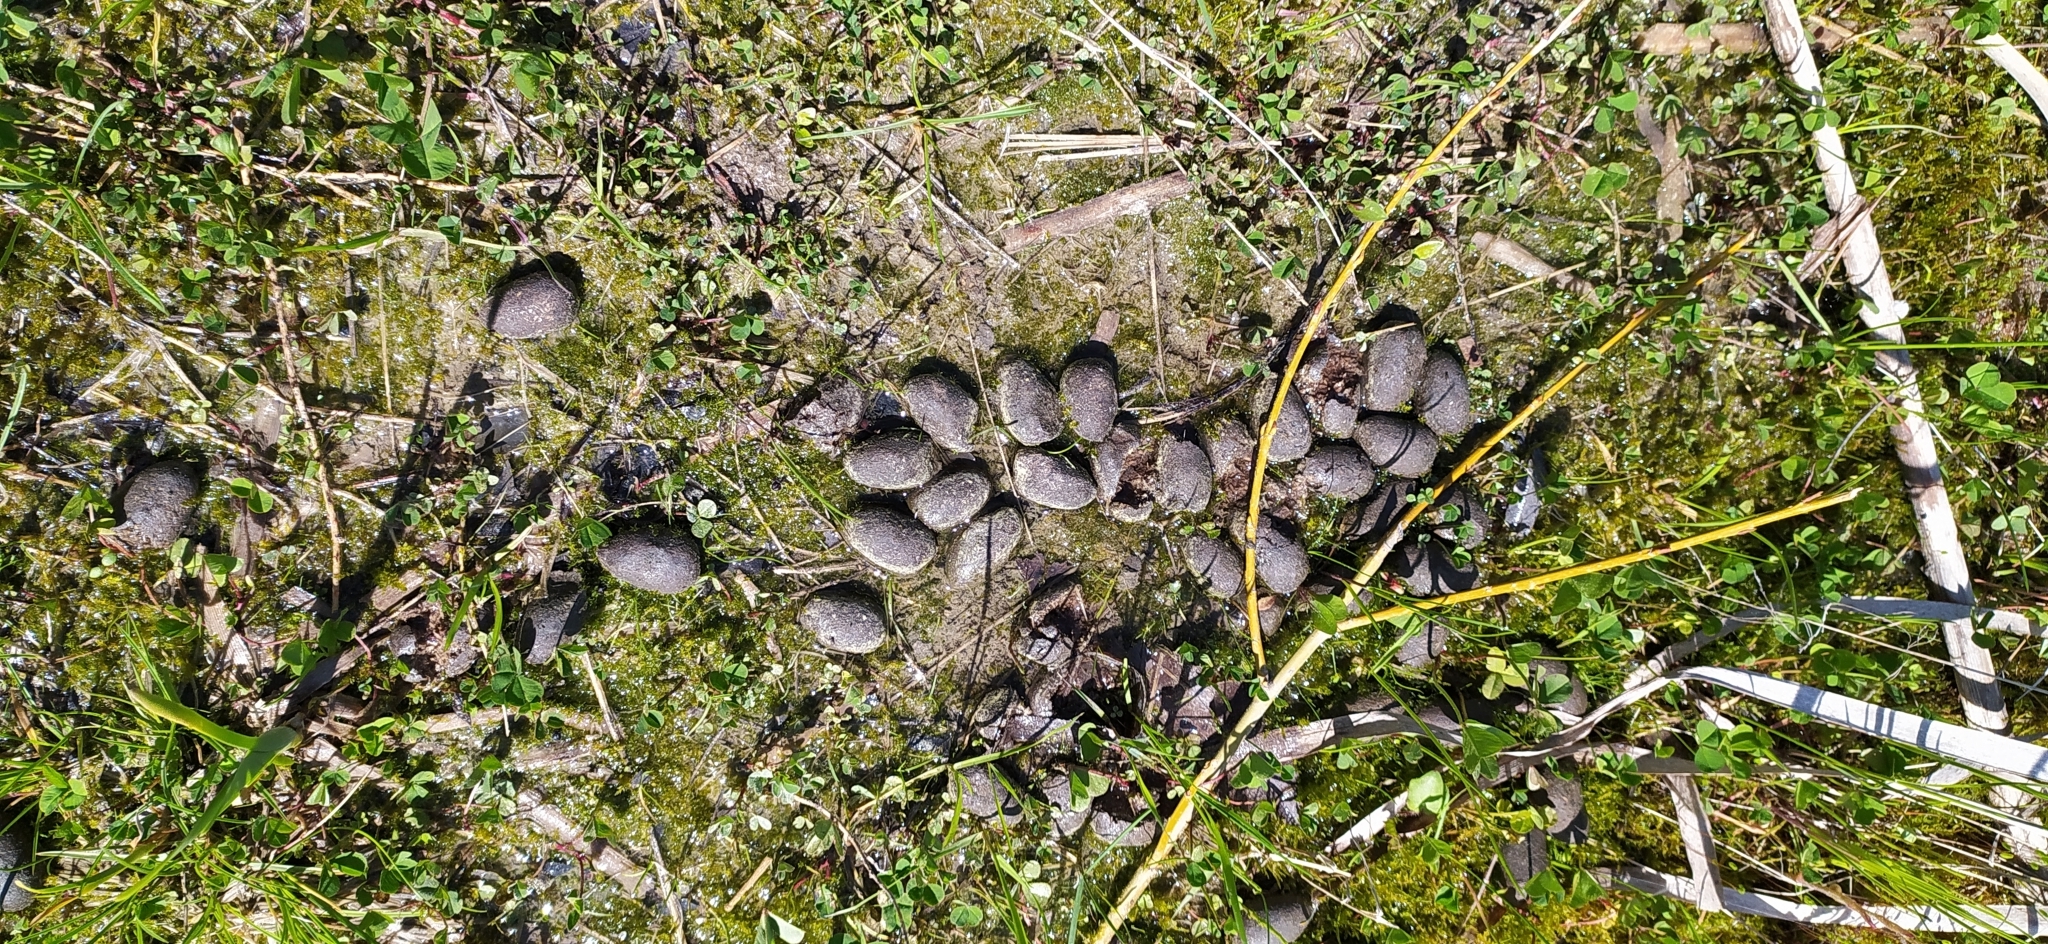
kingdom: Animalia
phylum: Chordata
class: Mammalia
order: Artiodactyla
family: Cervidae
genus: Alces
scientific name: Alces alces
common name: Moose
